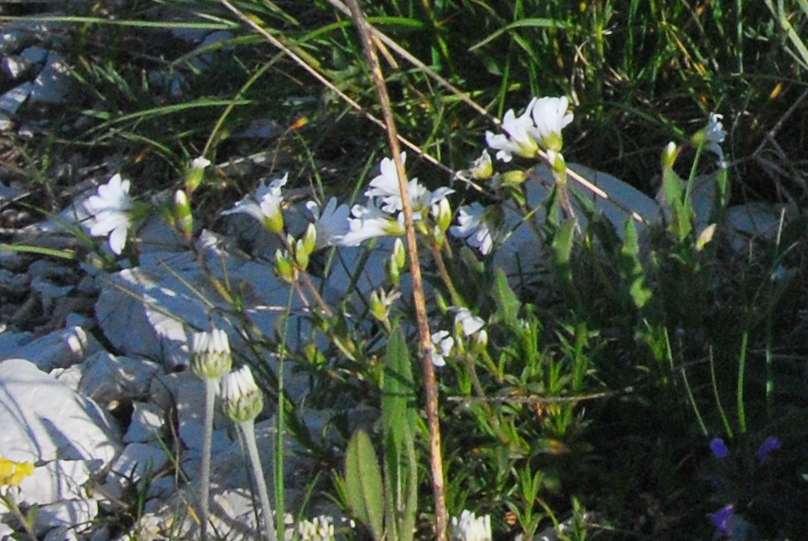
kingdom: Plantae
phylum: Tracheophyta
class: Magnoliopsida
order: Saxifragales
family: Saxifragaceae
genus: Saxifraga
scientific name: Saxifraga granulata
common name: Meadow saxifrage
